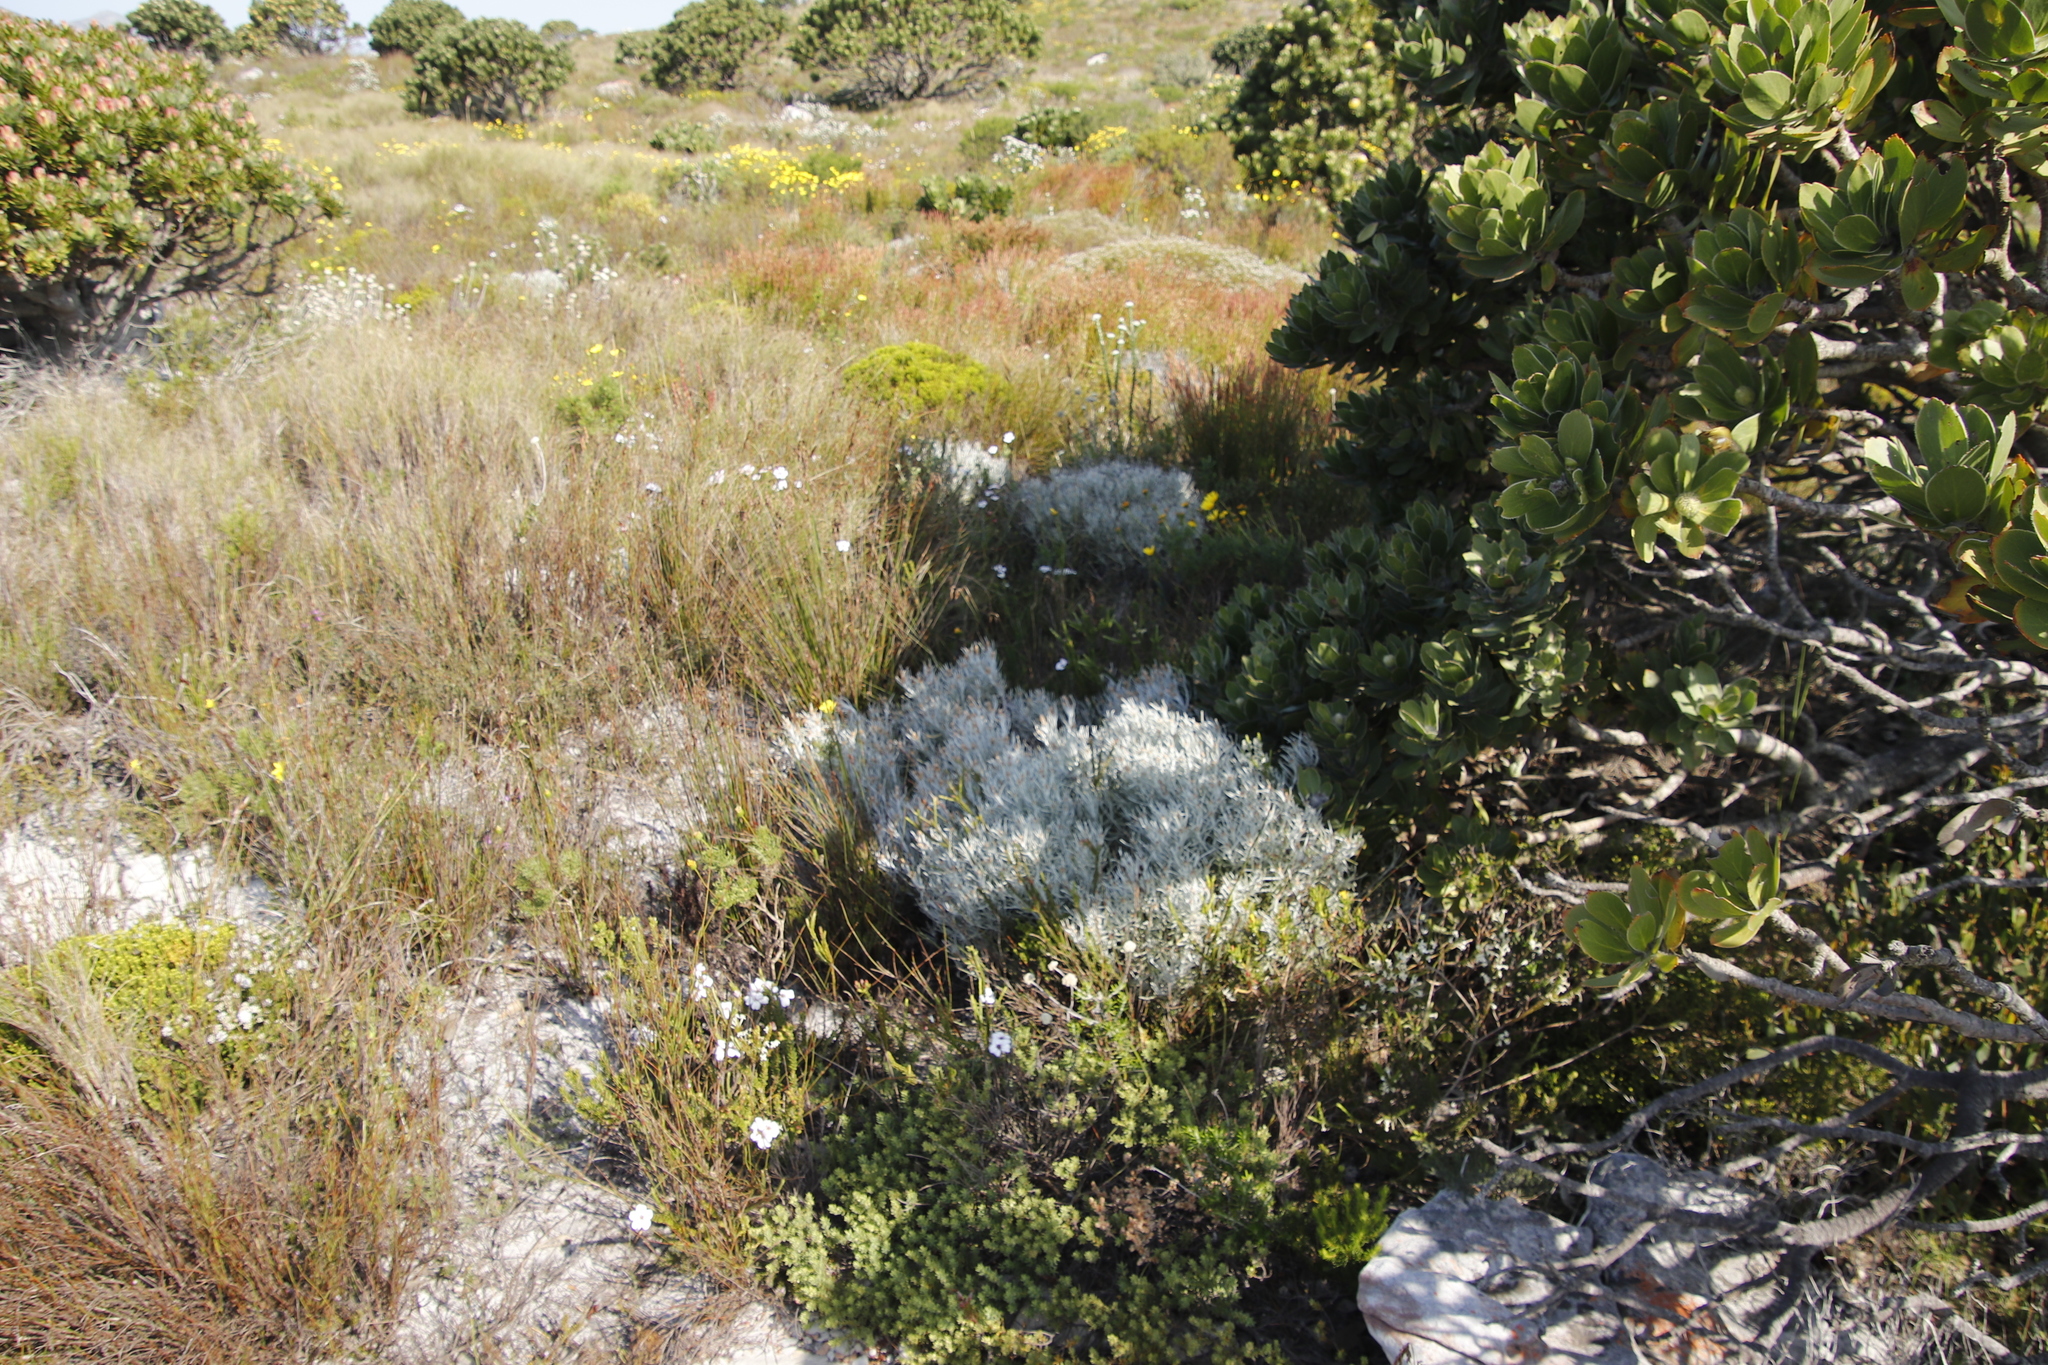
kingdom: Plantae
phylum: Tracheophyta
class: Magnoliopsida
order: Asterales
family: Asteraceae
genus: Syncarpha
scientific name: Syncarpha gnaphaloides
